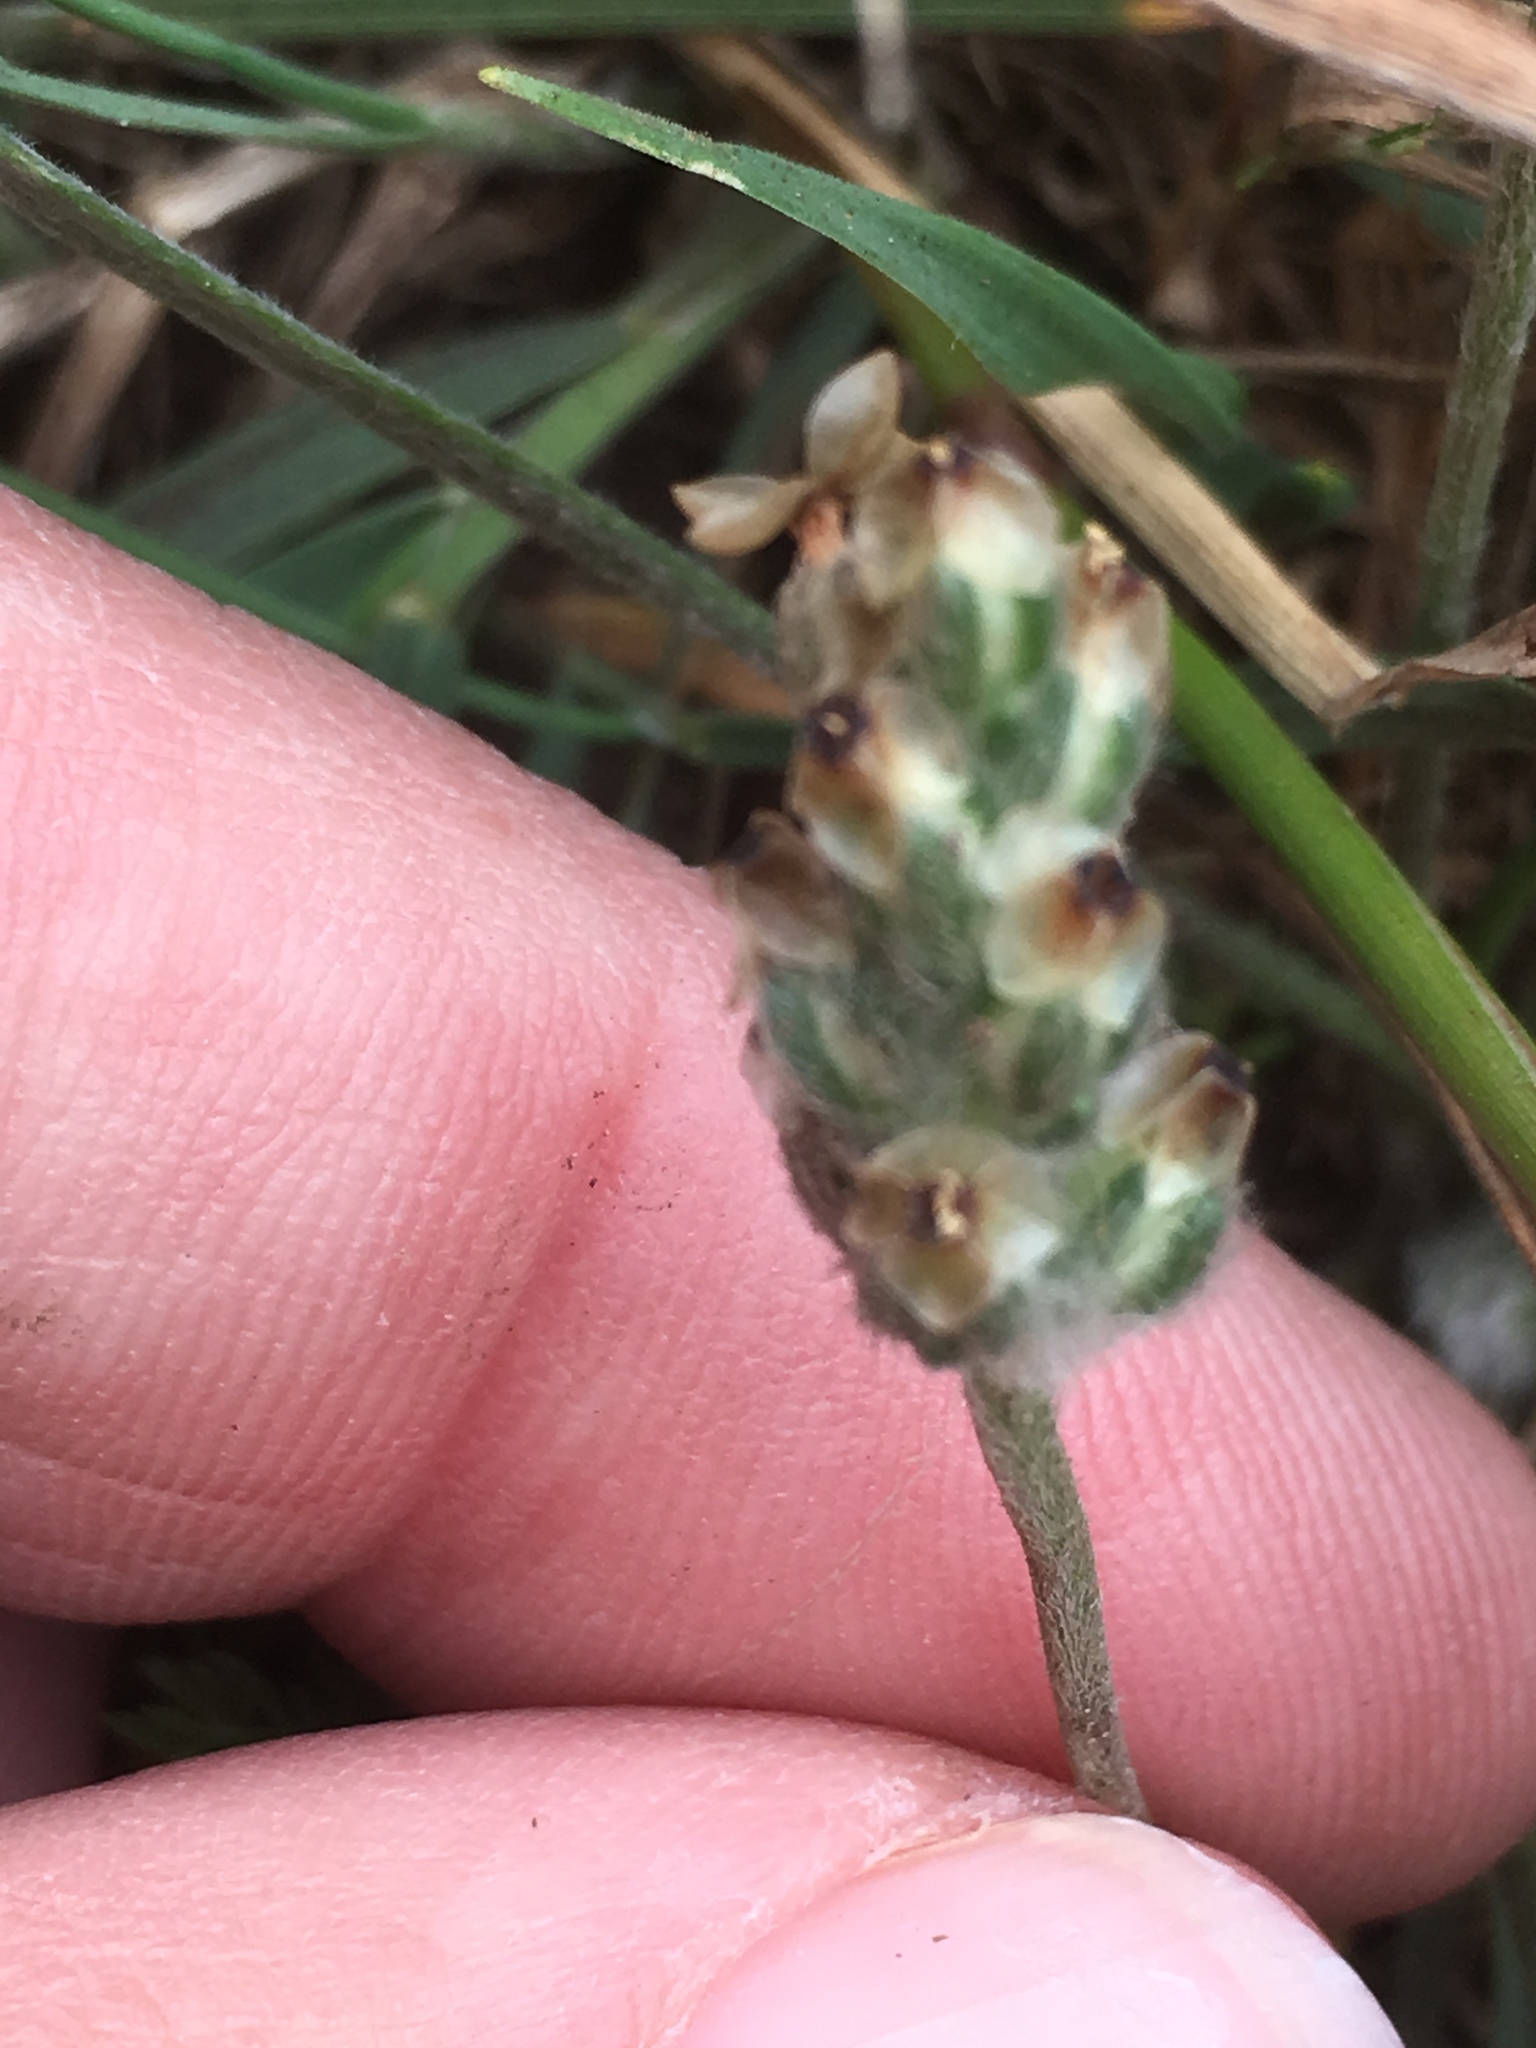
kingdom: Plantae
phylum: Tracheophyta
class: Magnoliopsida
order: Lamiales
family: Plantaginaceae
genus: Plantago
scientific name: Plantago erecta
